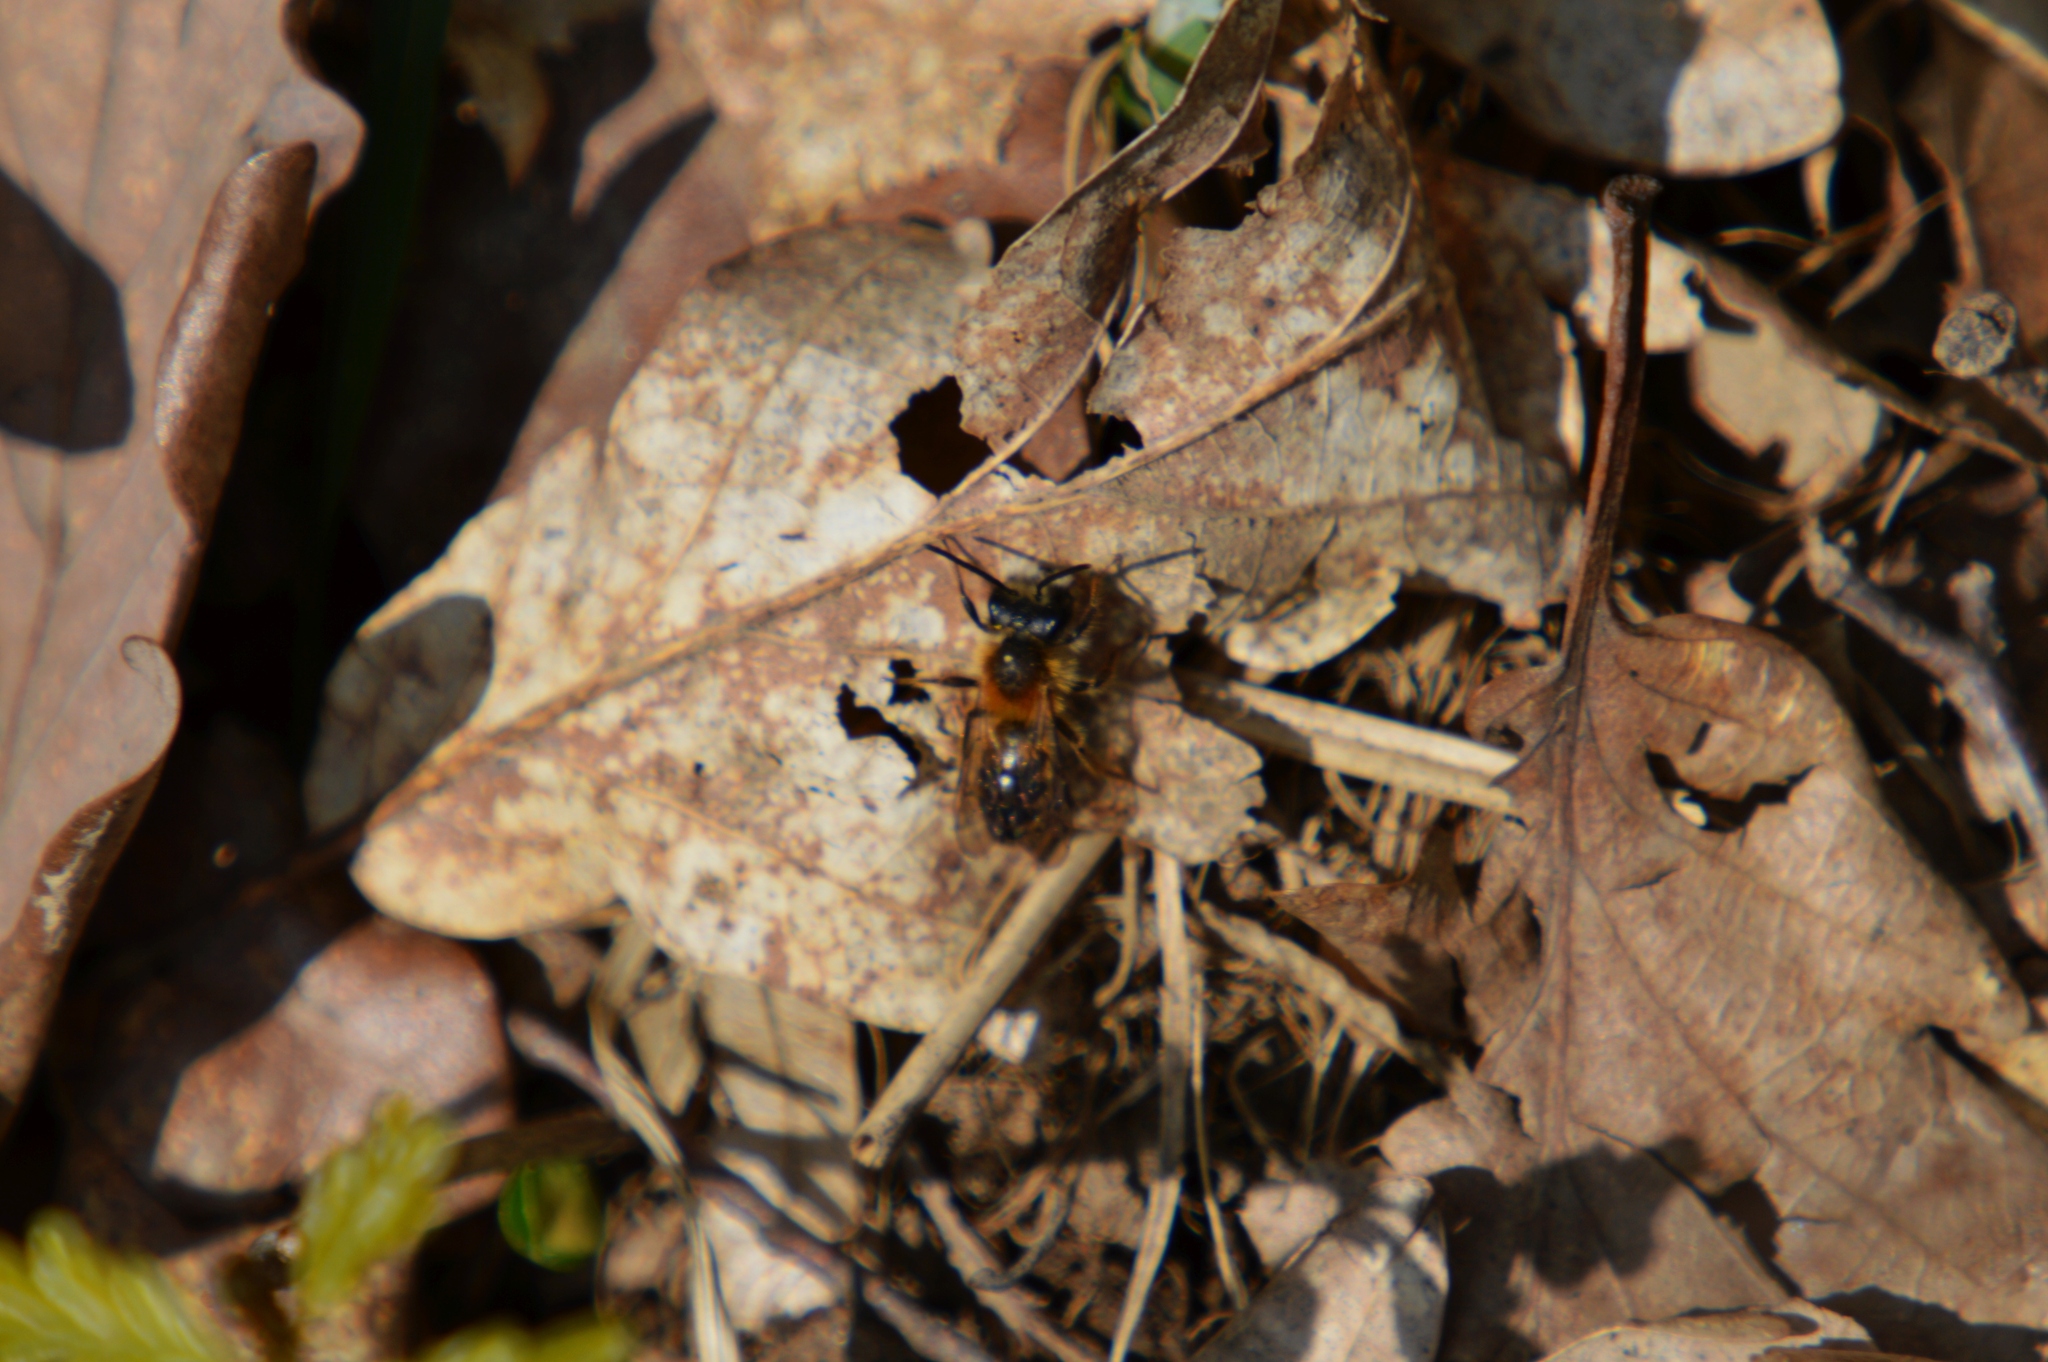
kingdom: Animalia
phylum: Arthropoda
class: Insecta
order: Hymenoptera
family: Megachilidae
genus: Osmia
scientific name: Osmia bicornis
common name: Red mason bee
